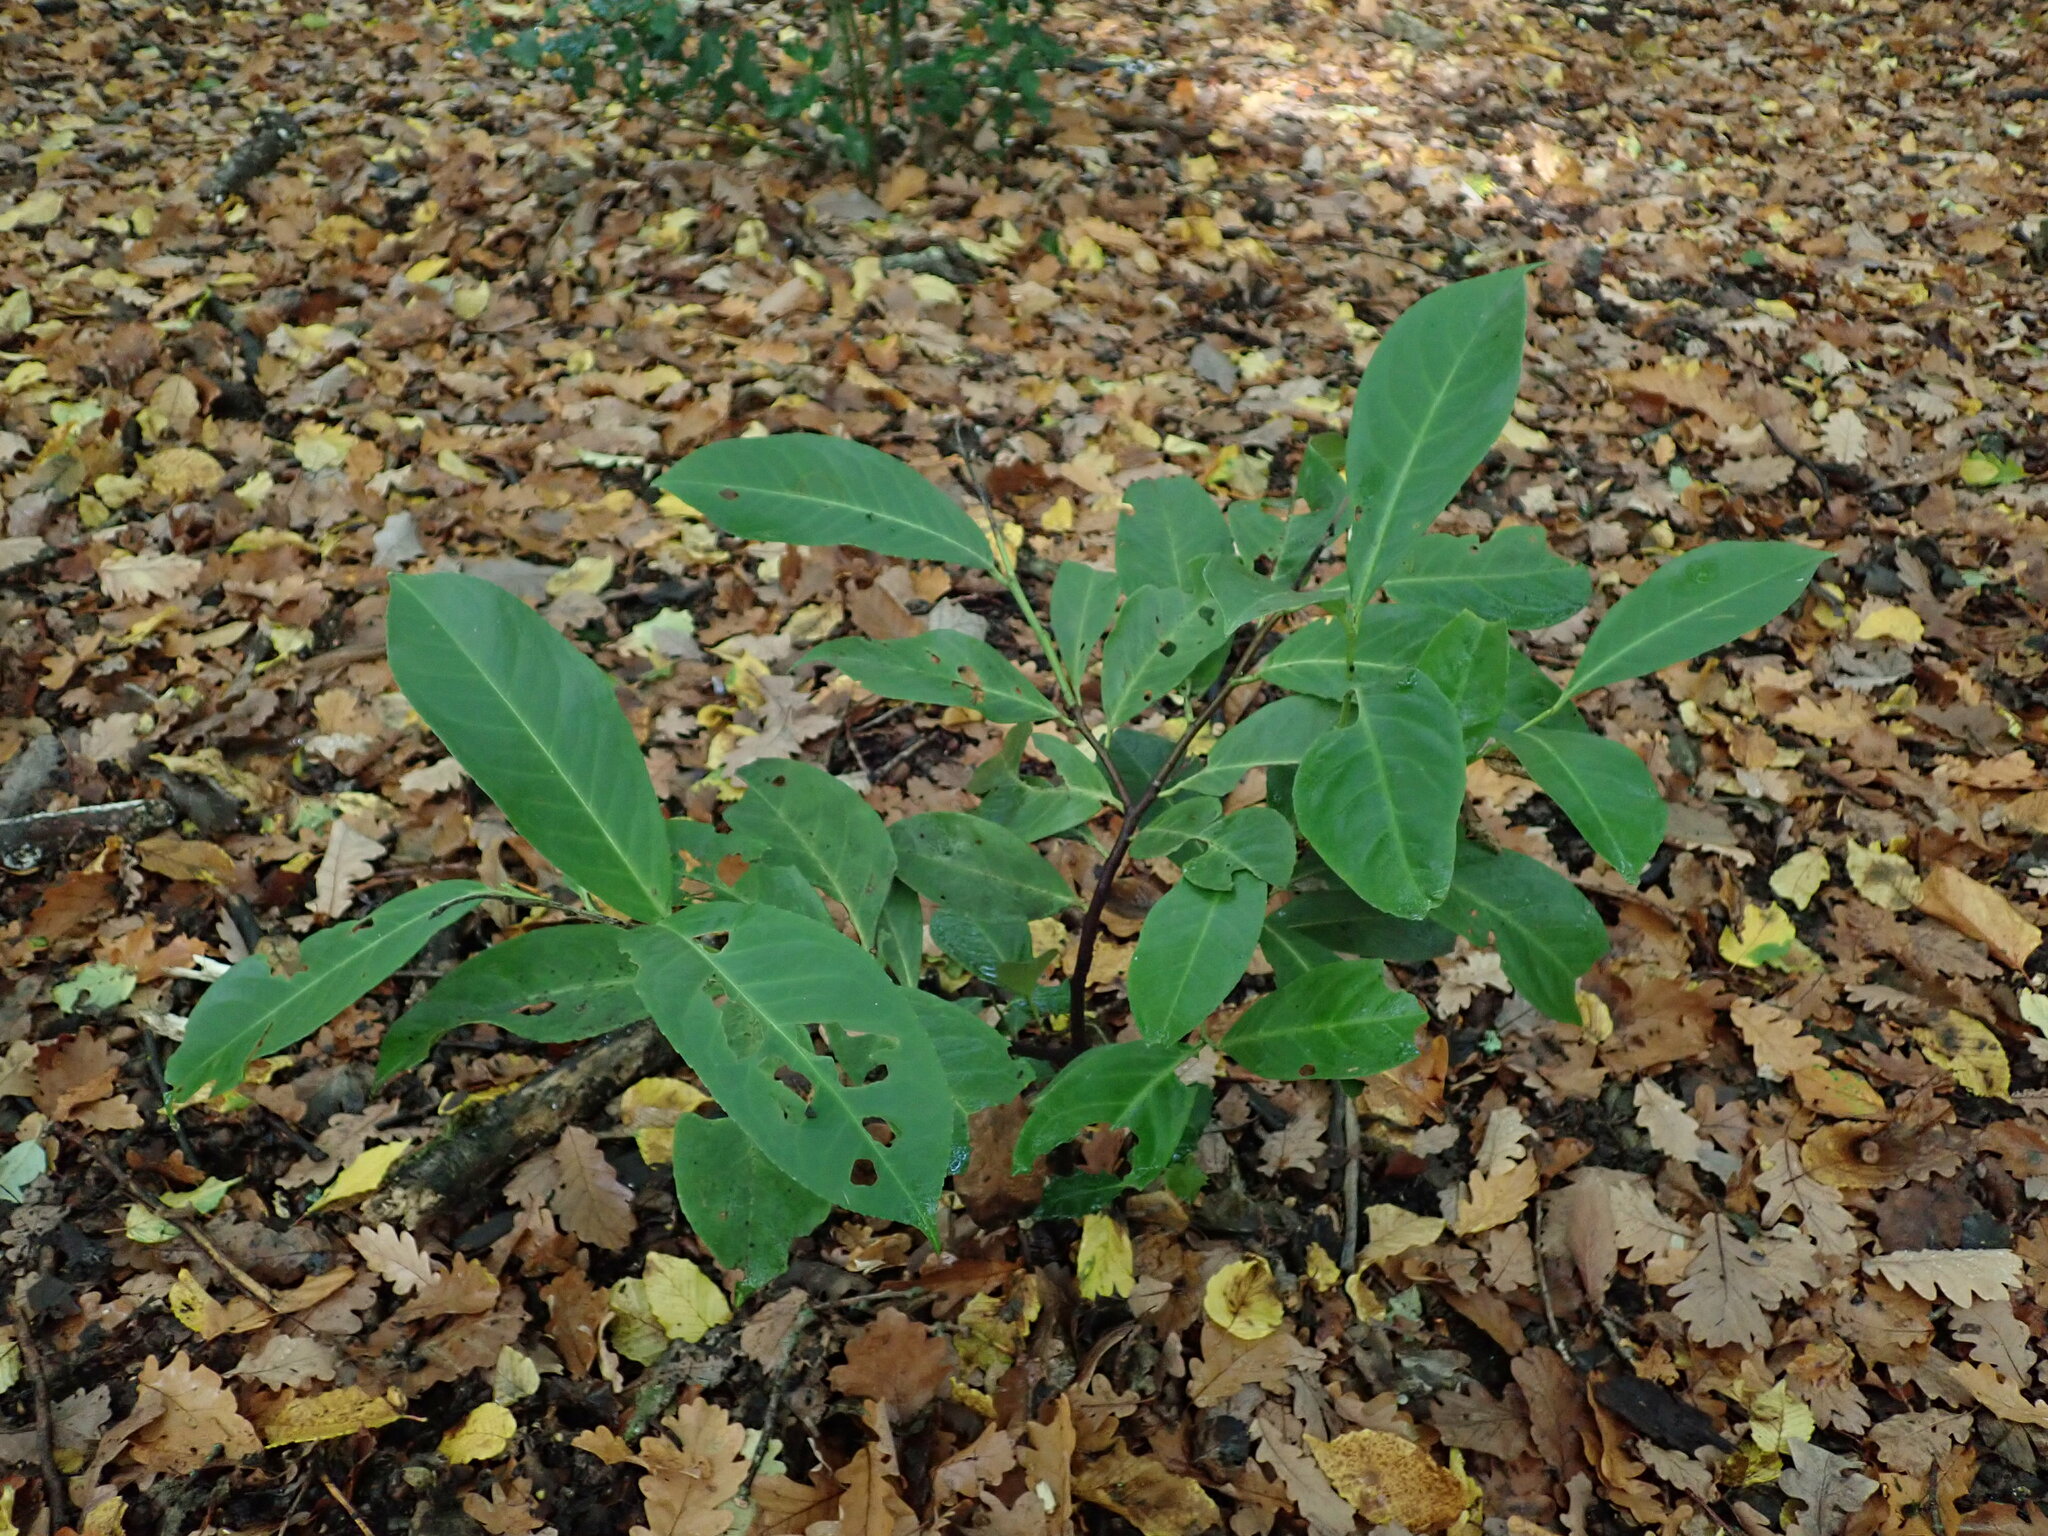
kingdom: Plantae
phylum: Tracheophyta
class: Magnoliopsida
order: Rosales
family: Rosaceae
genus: Prunus
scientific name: Prunus laurocerasus
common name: Cherry laurel
